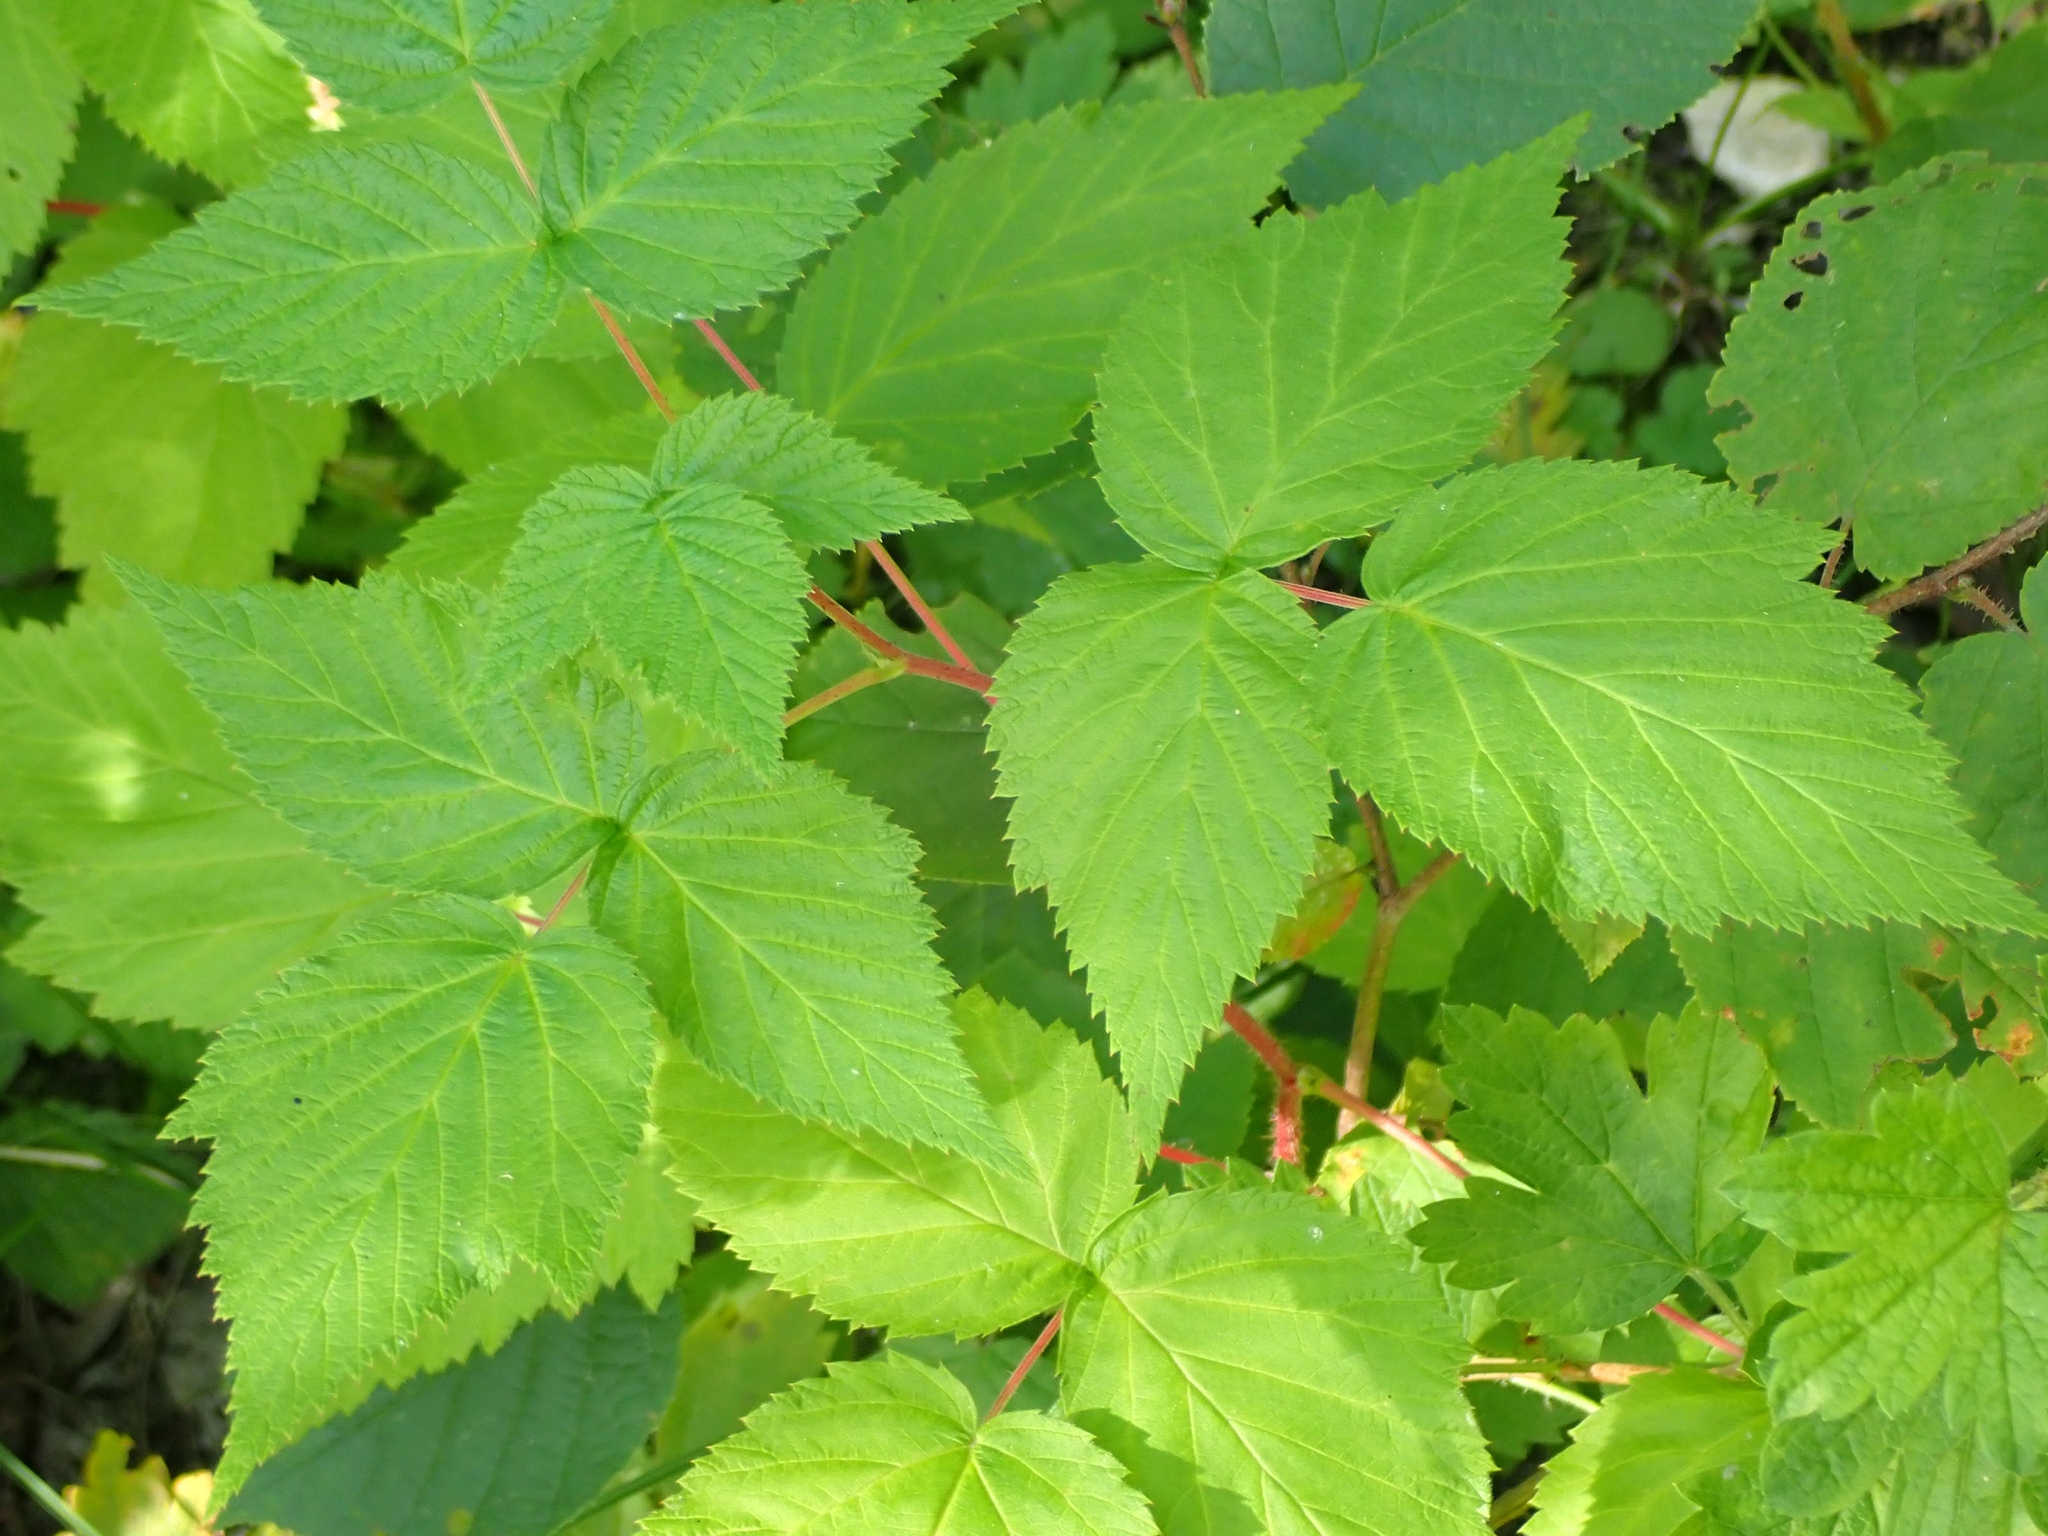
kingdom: Plantae
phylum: Tracheophyta
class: Magnoliopsida
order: Rosales
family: Rosaceae
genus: Rubus
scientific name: Rubus idaeus
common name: Raspberry
